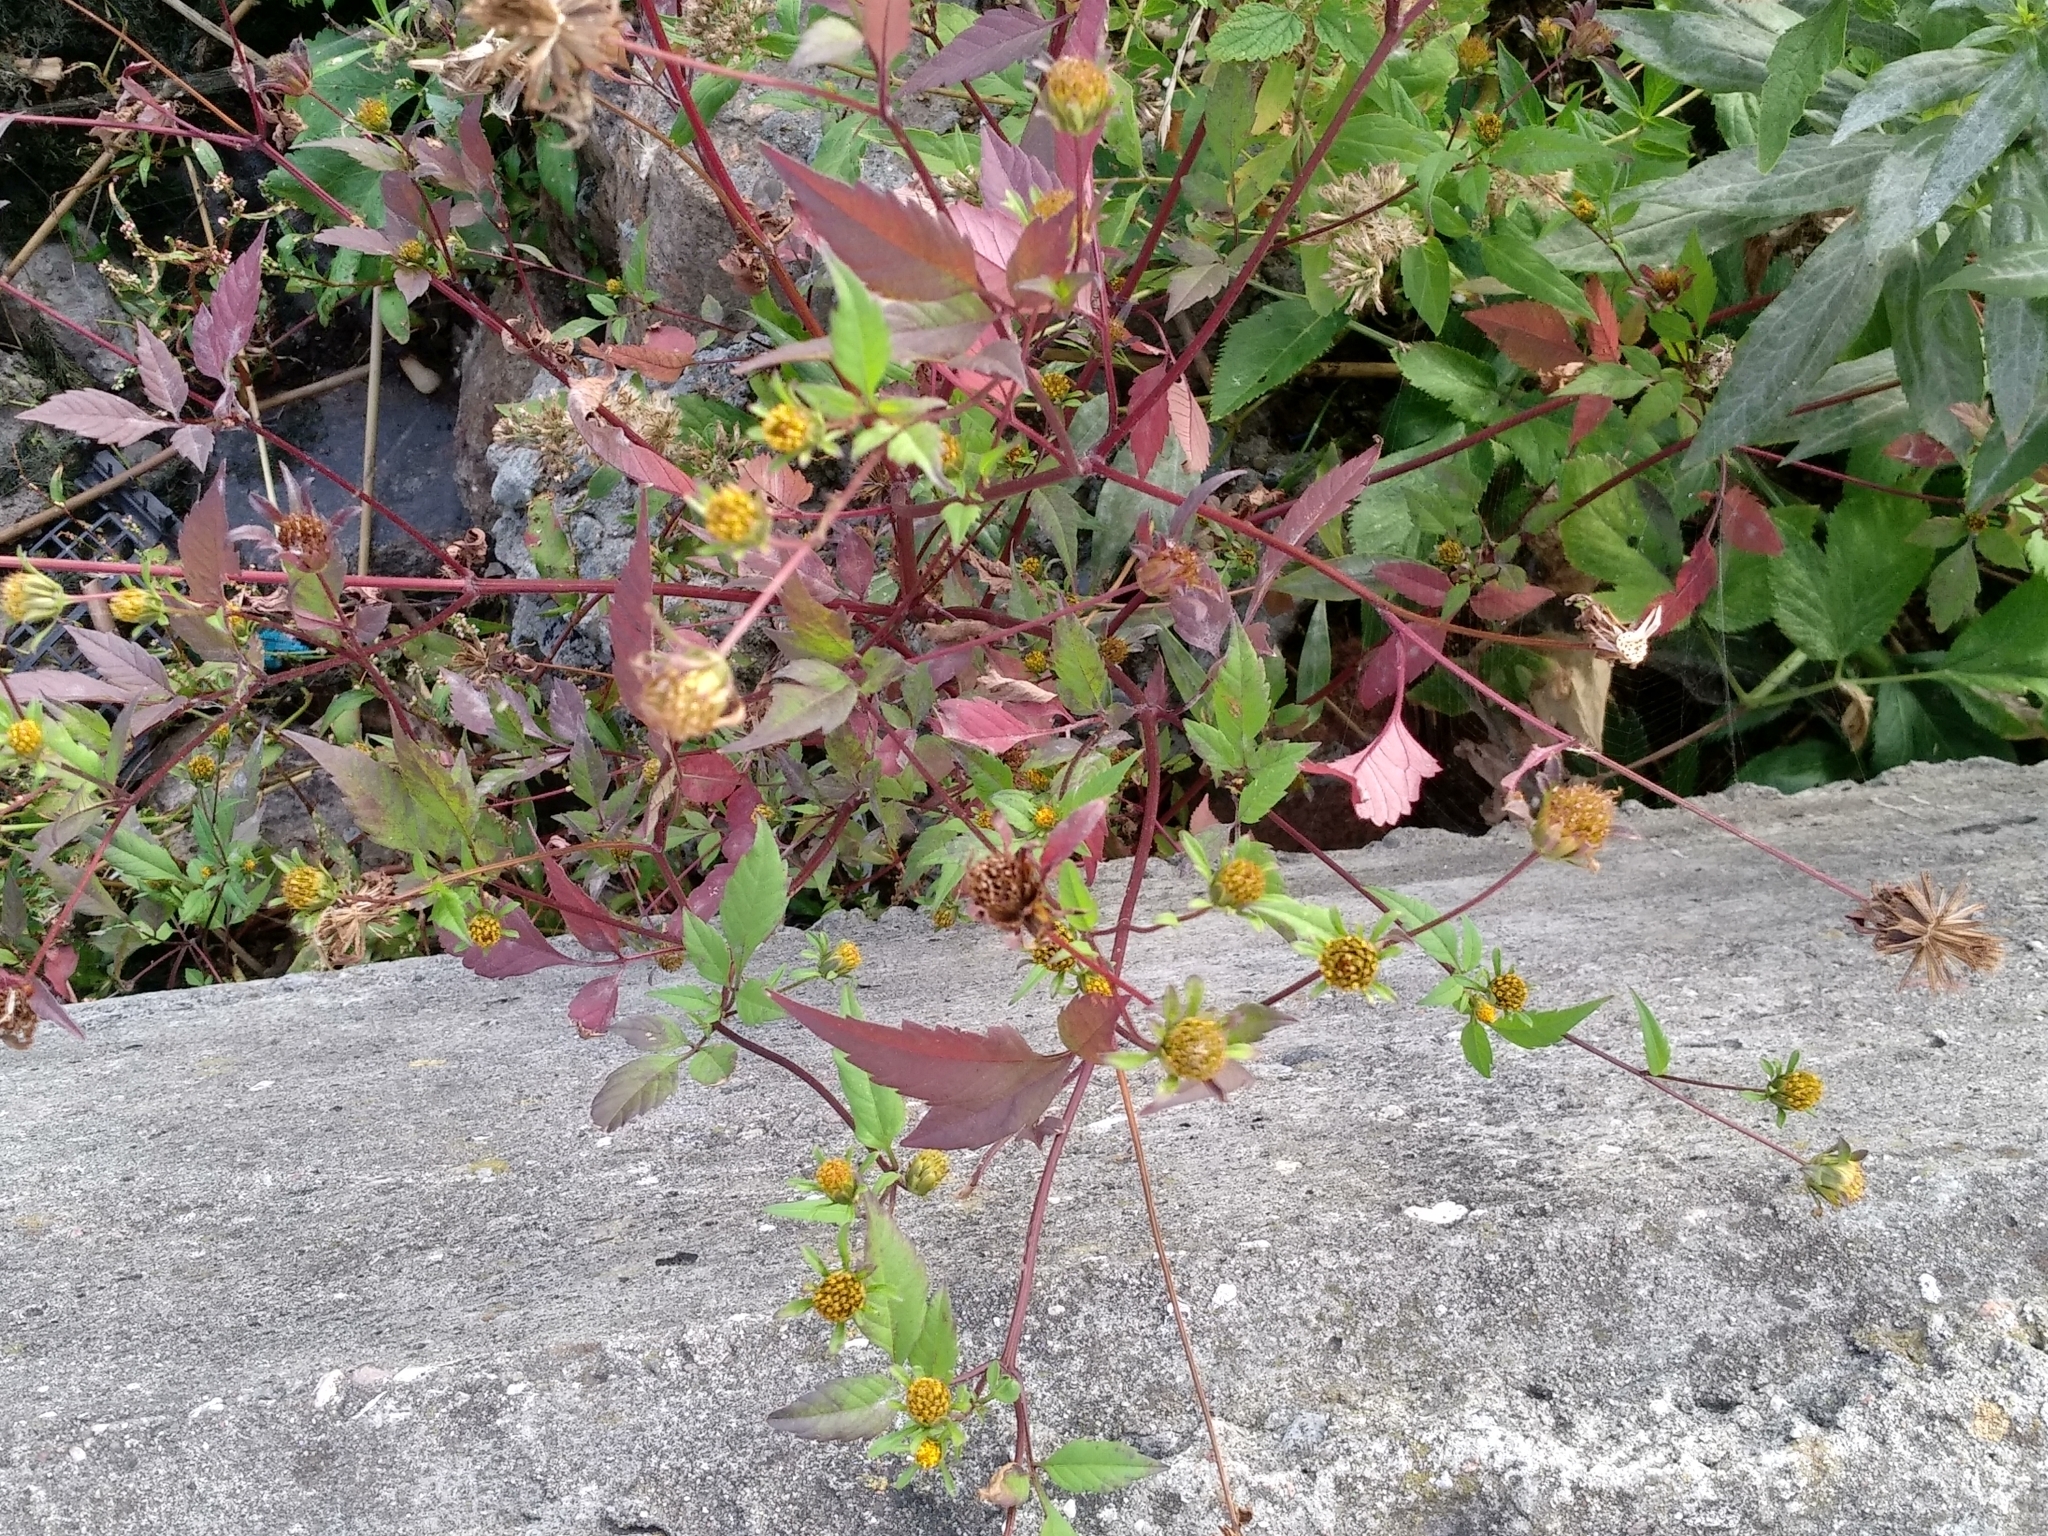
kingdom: Plantae
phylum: Tracheophyta
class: Magnoliopsida
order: Asterales
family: Asteraceae
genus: Bidens
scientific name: Bidens frondosa
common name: Beggarticks
